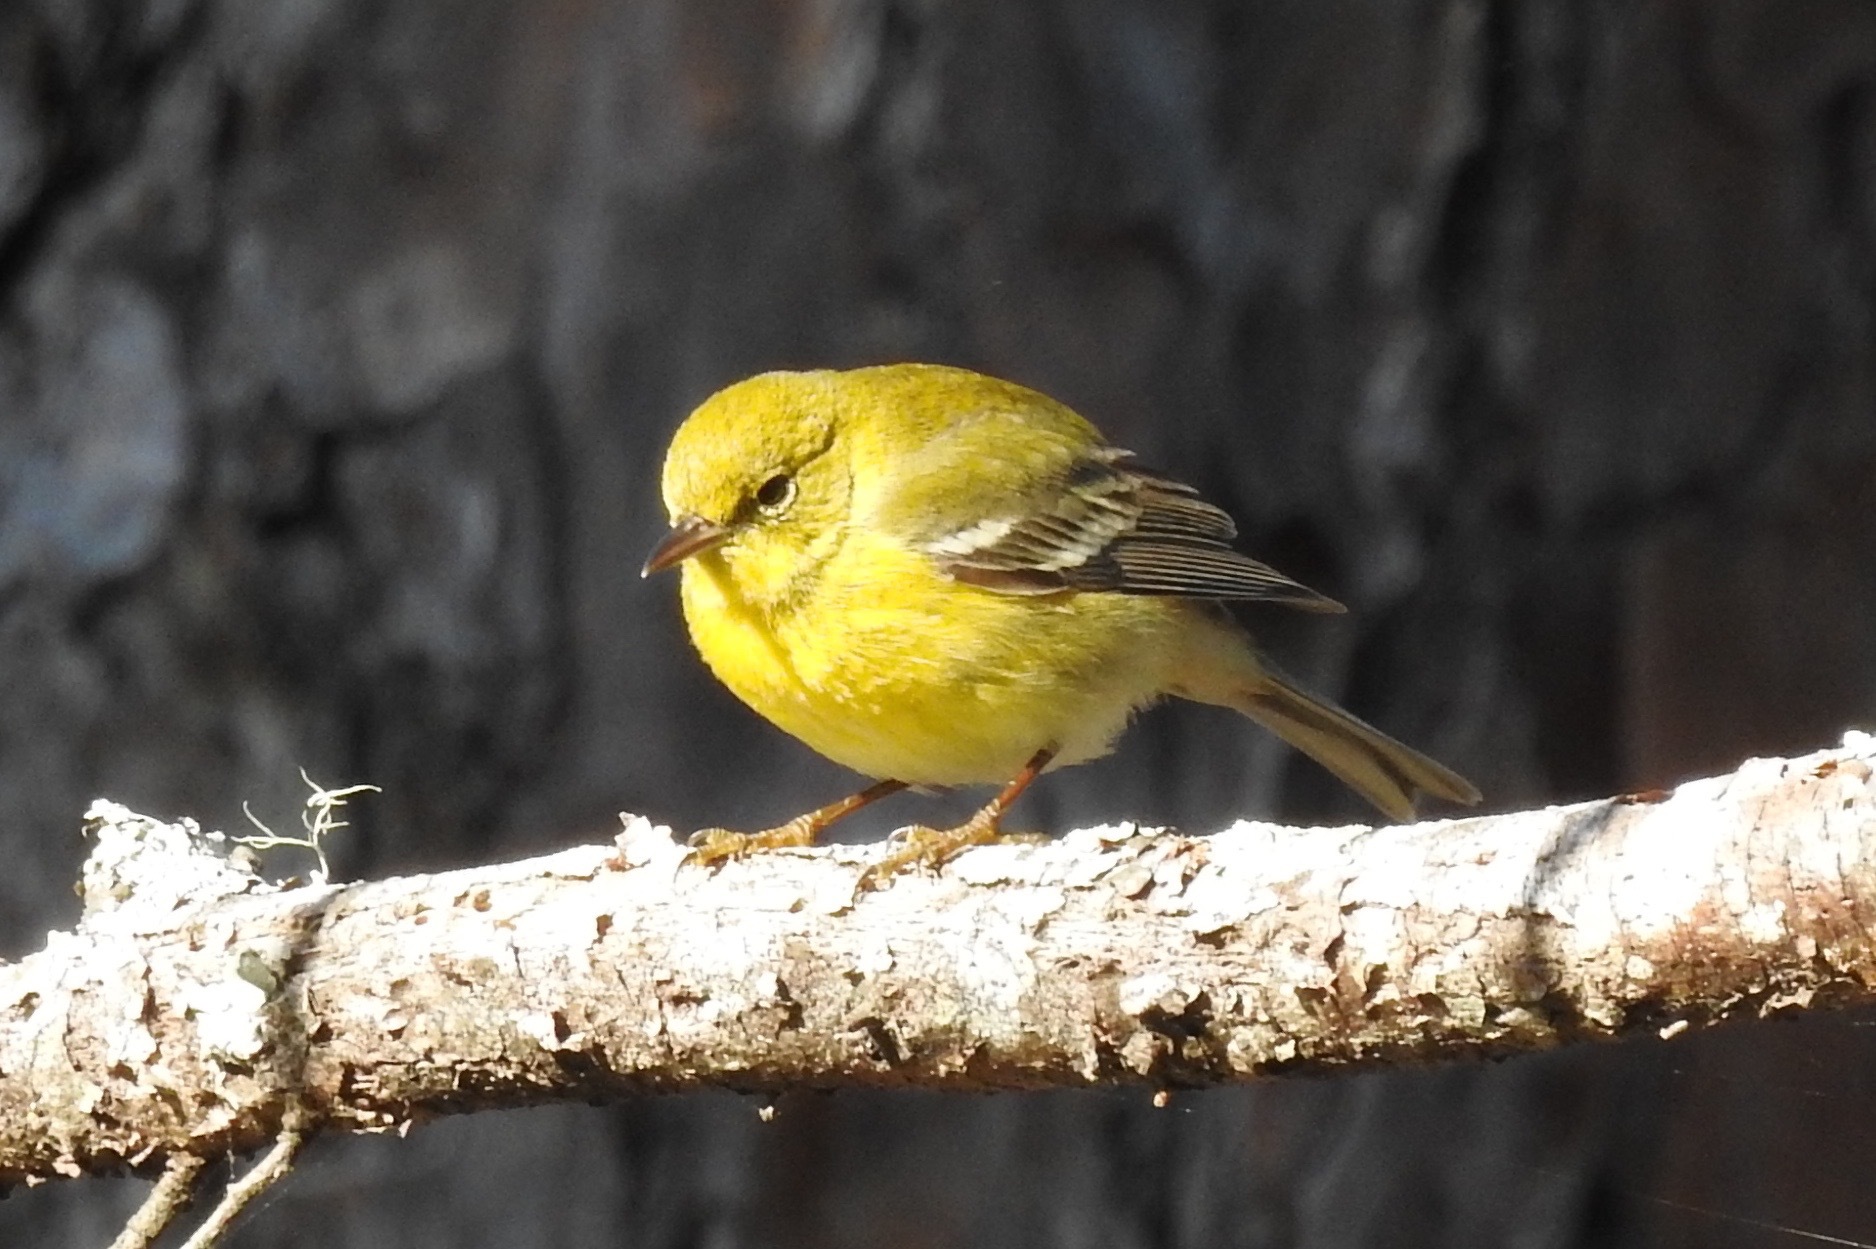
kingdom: Animalia
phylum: Chordata
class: Aves
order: Passeriformes
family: Parulidae
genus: Setophaga
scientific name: Setophaga pinus
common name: Pine warbler
